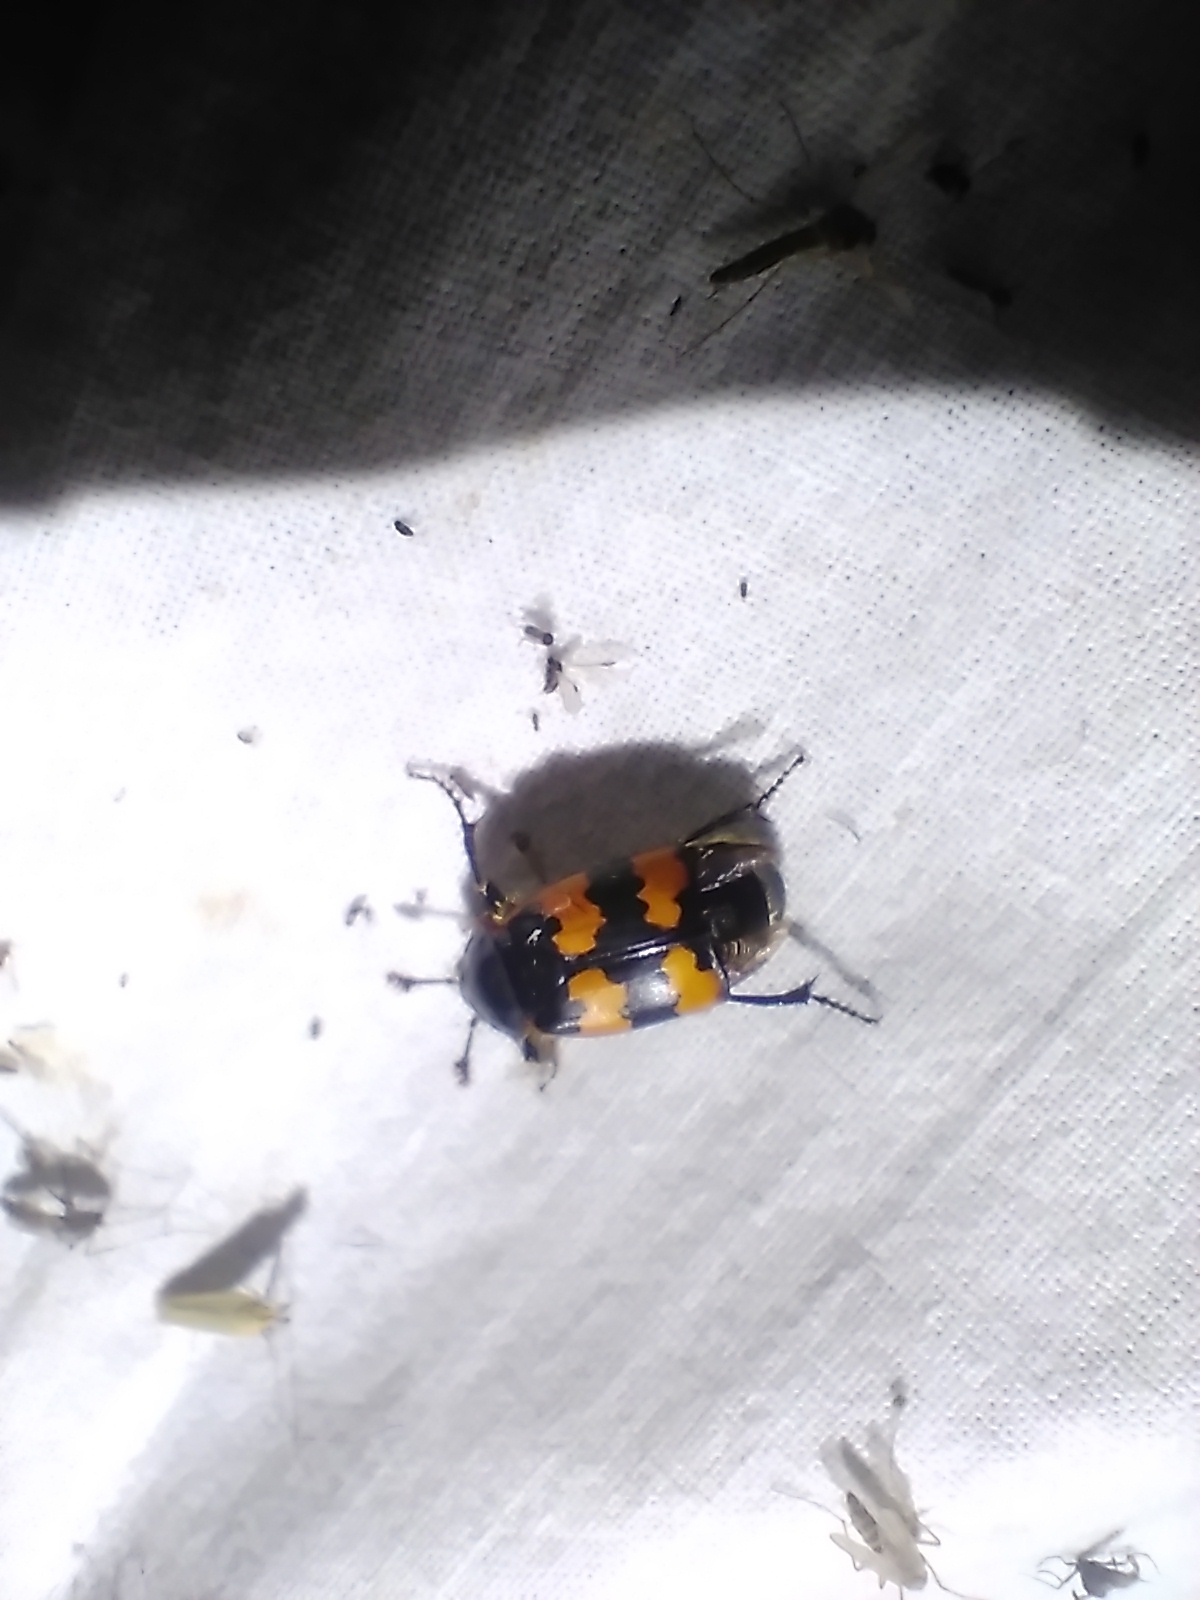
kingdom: Animalia
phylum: Arthropoda
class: Insecta
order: Coleoptera
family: Staphylinidae
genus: Nicrophorus
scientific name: Nicrophorus vespillo
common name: Common burying beetle
